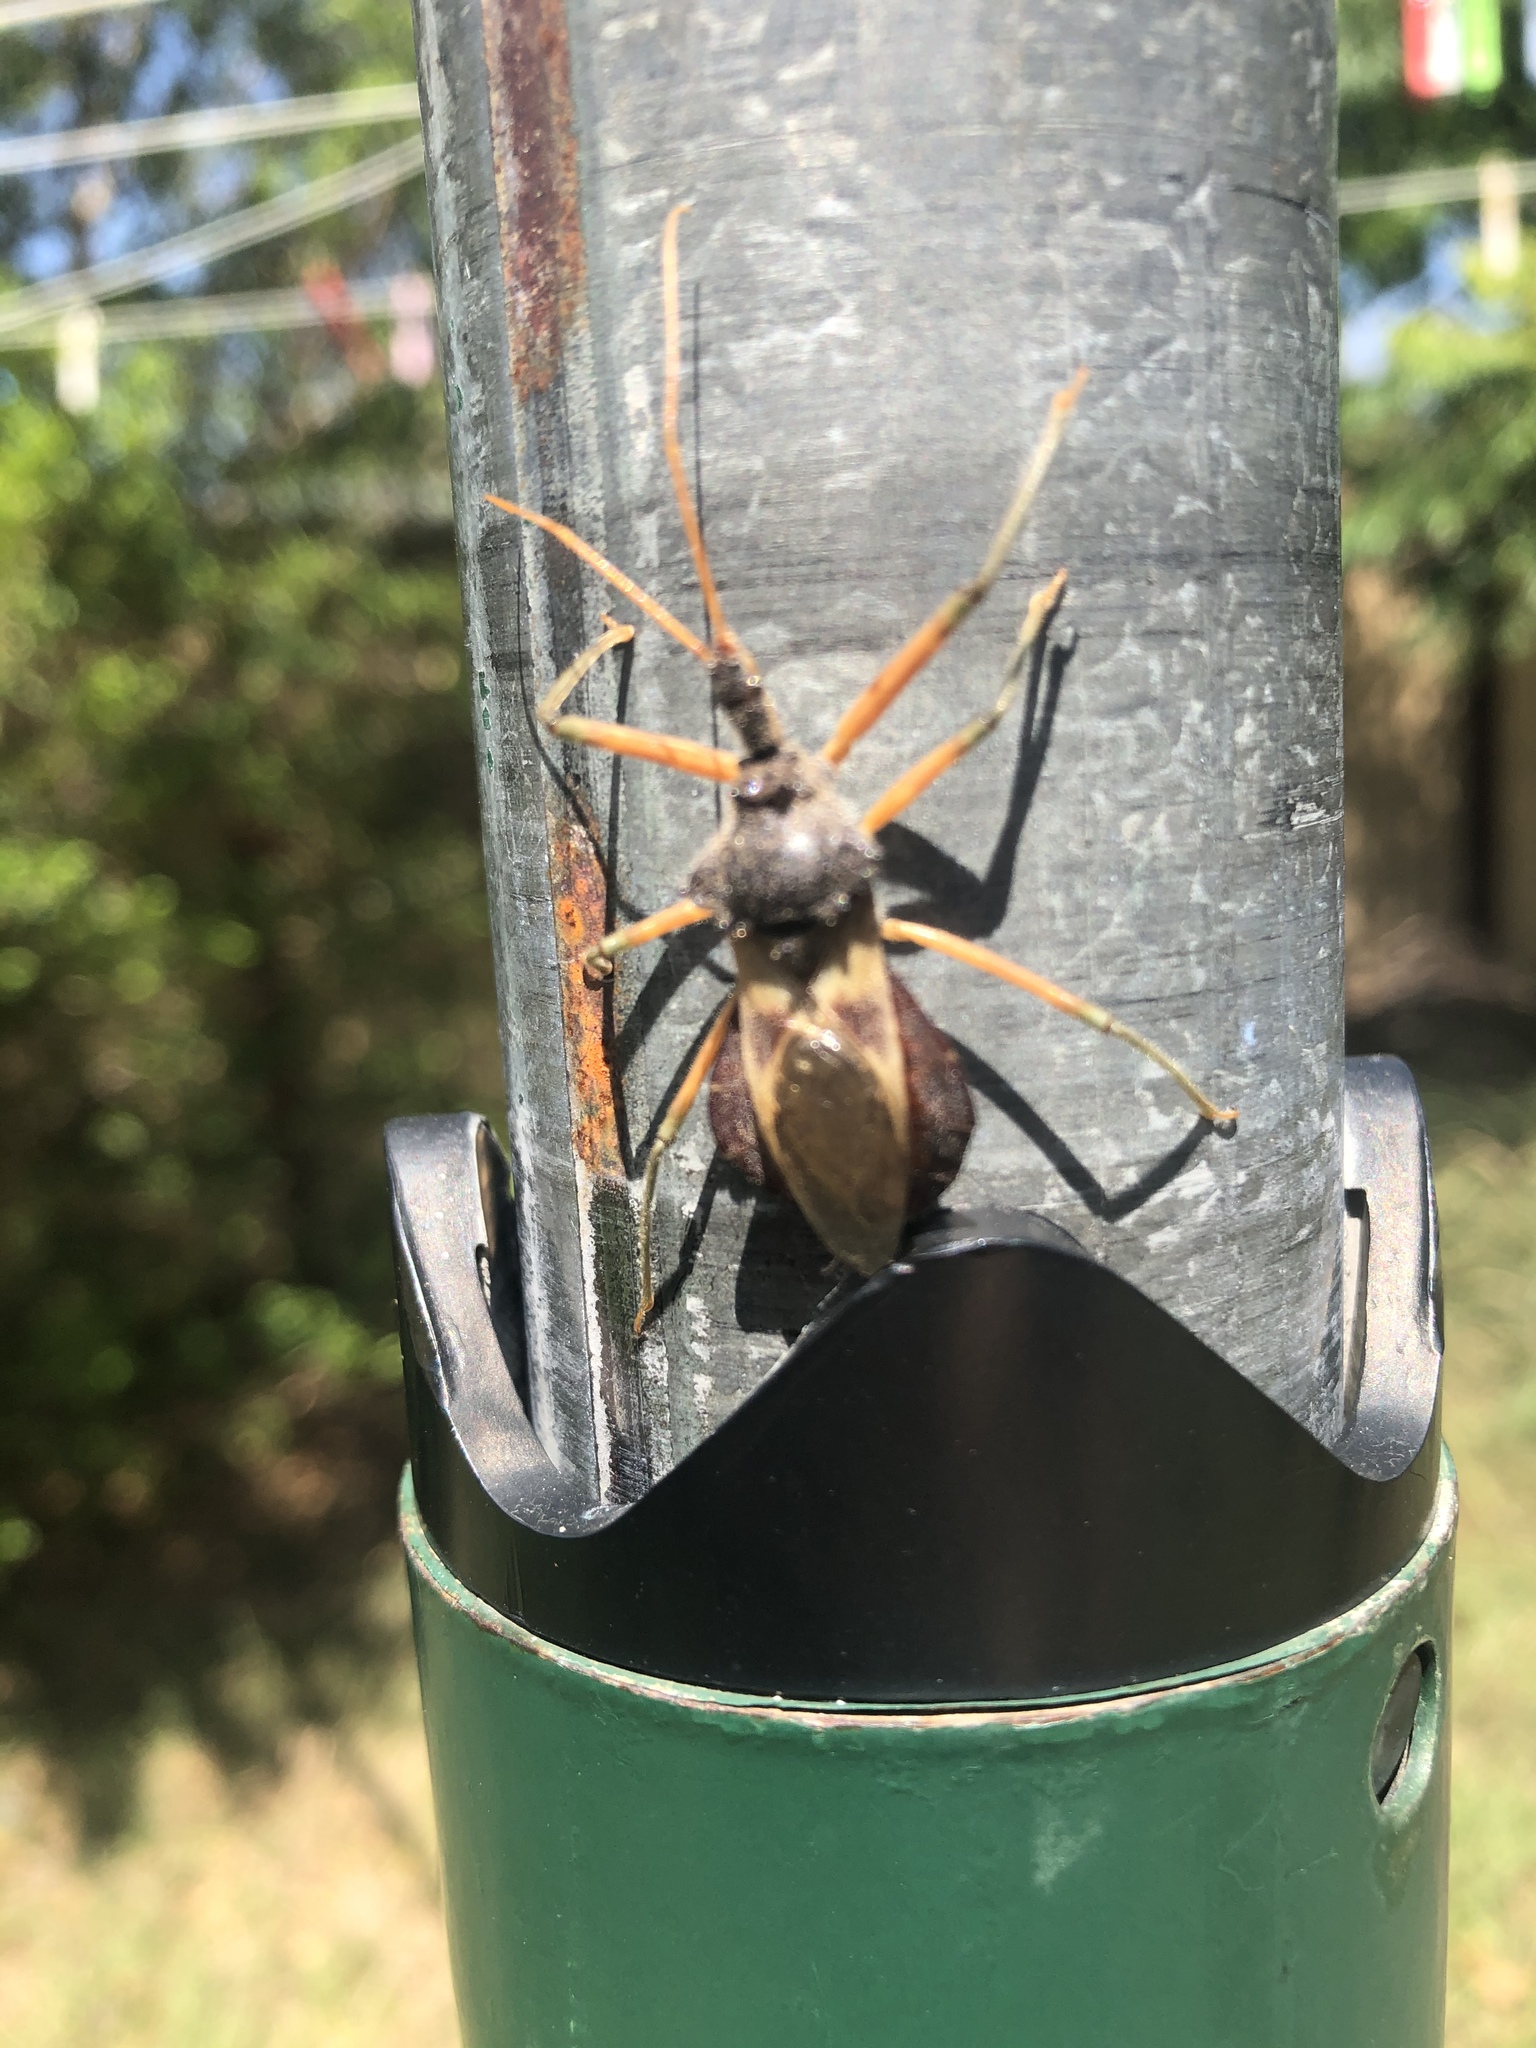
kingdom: Animalia
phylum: Arthropoda
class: Insecta
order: Hemiptera
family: Reduviidae
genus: Pristhesancus
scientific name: Pristhesancus plagipennis
